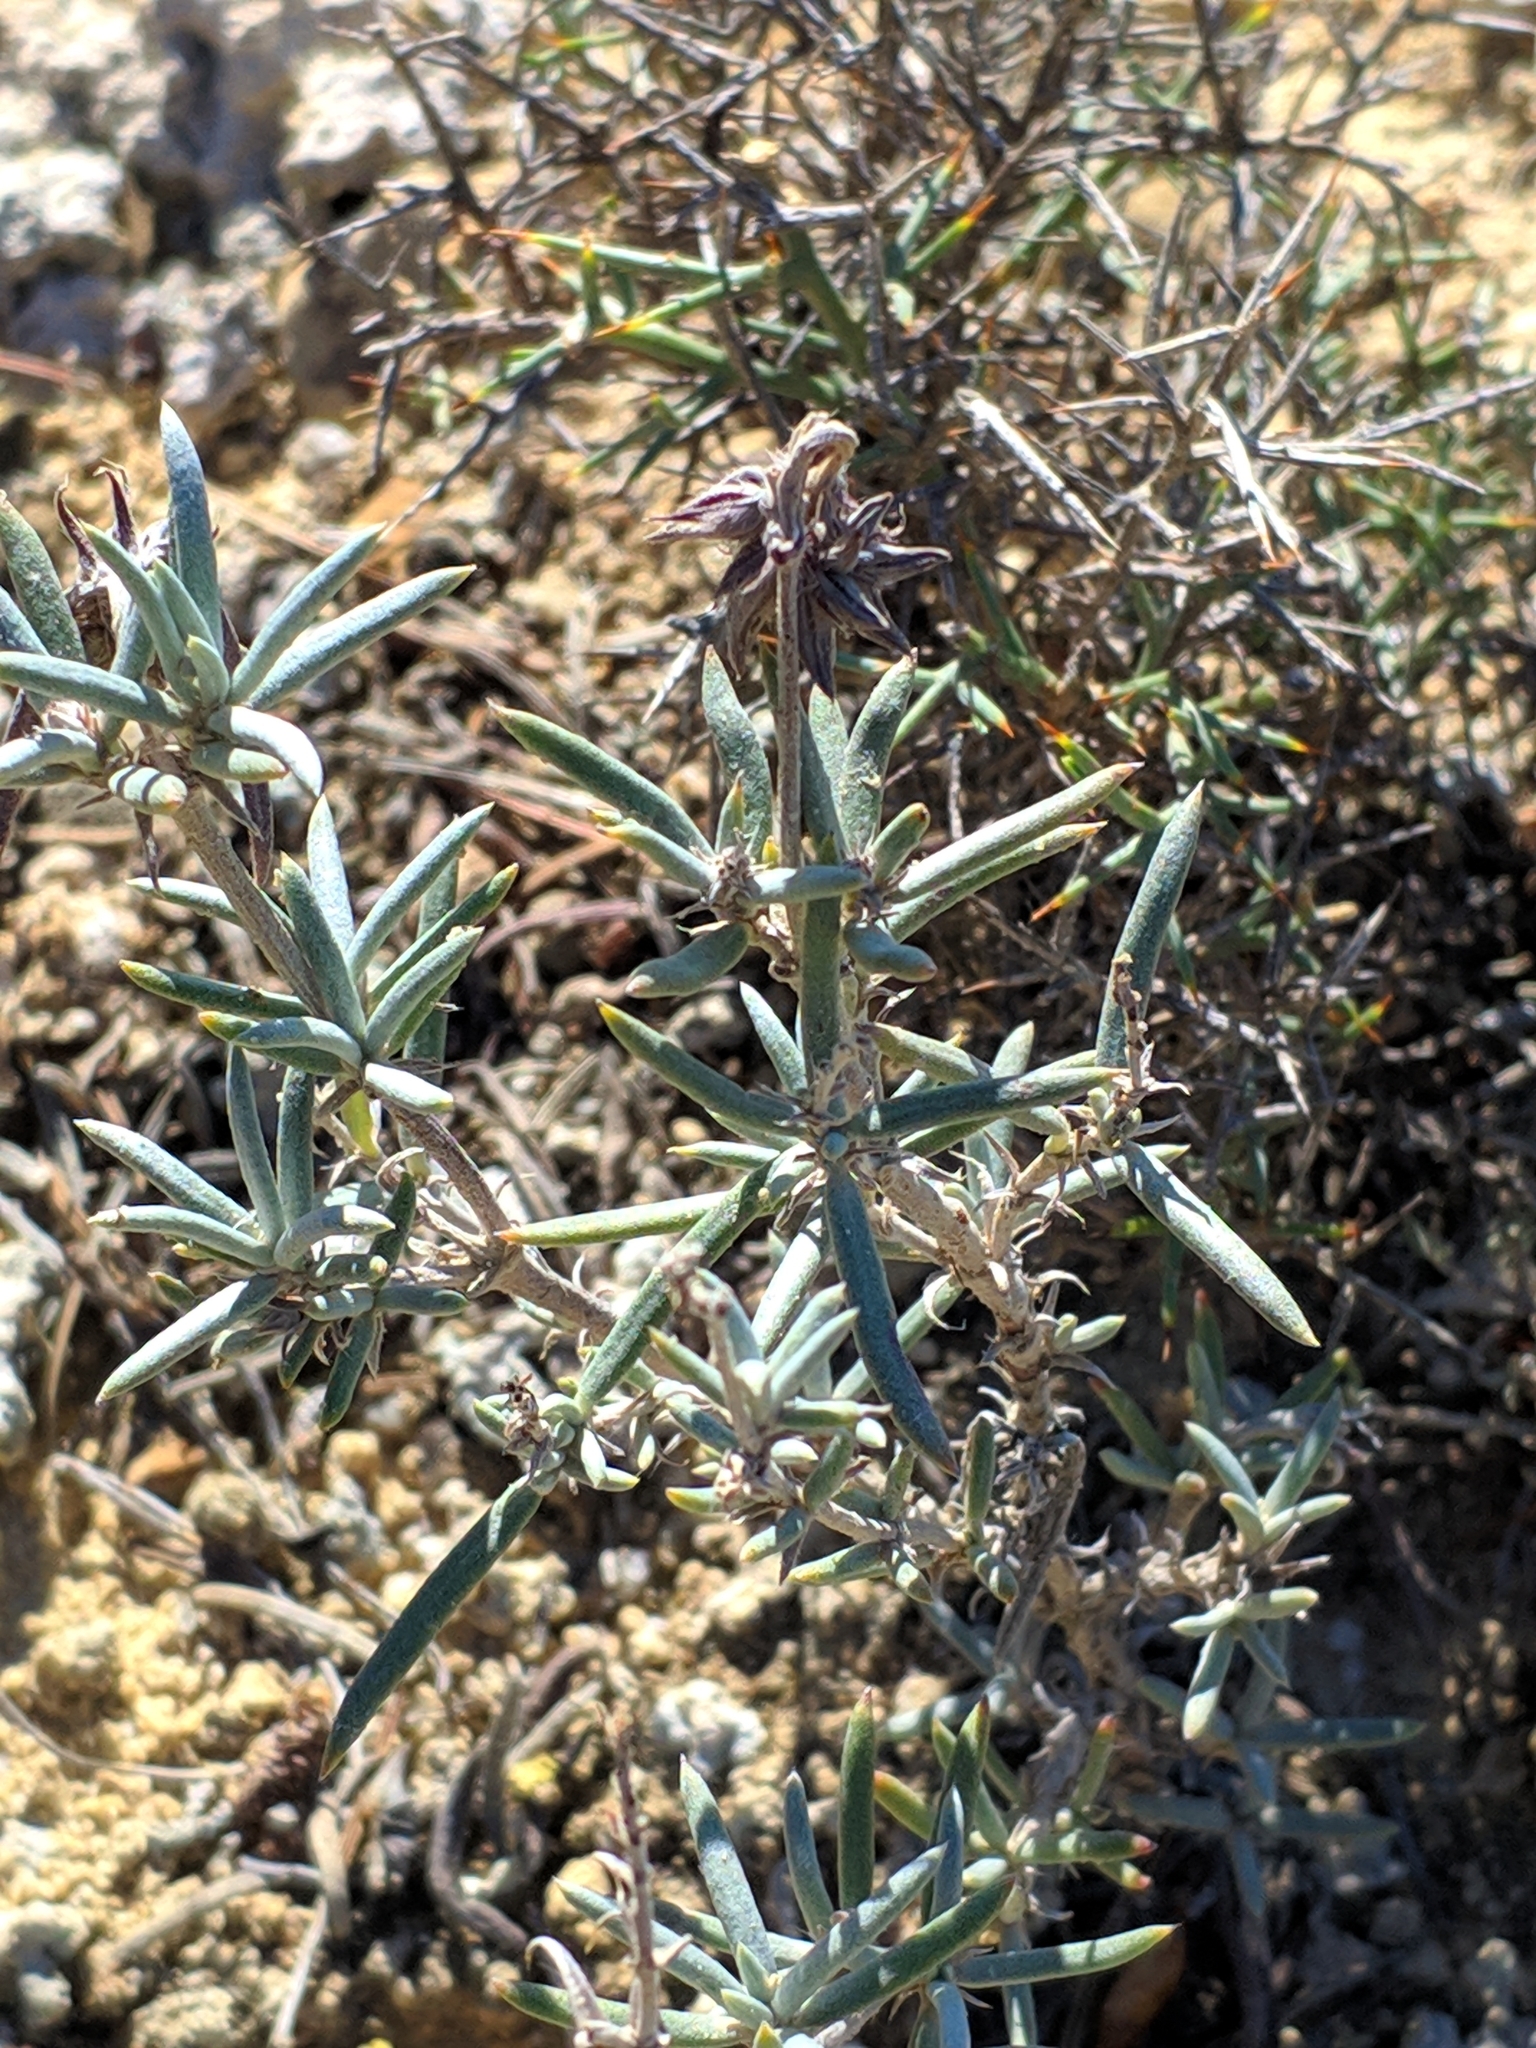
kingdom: Plantae
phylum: Tracheophyta
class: Magnoliopsida
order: Malvales
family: Cistaceae
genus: Helianthemum
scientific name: Helianthemum syriacum
